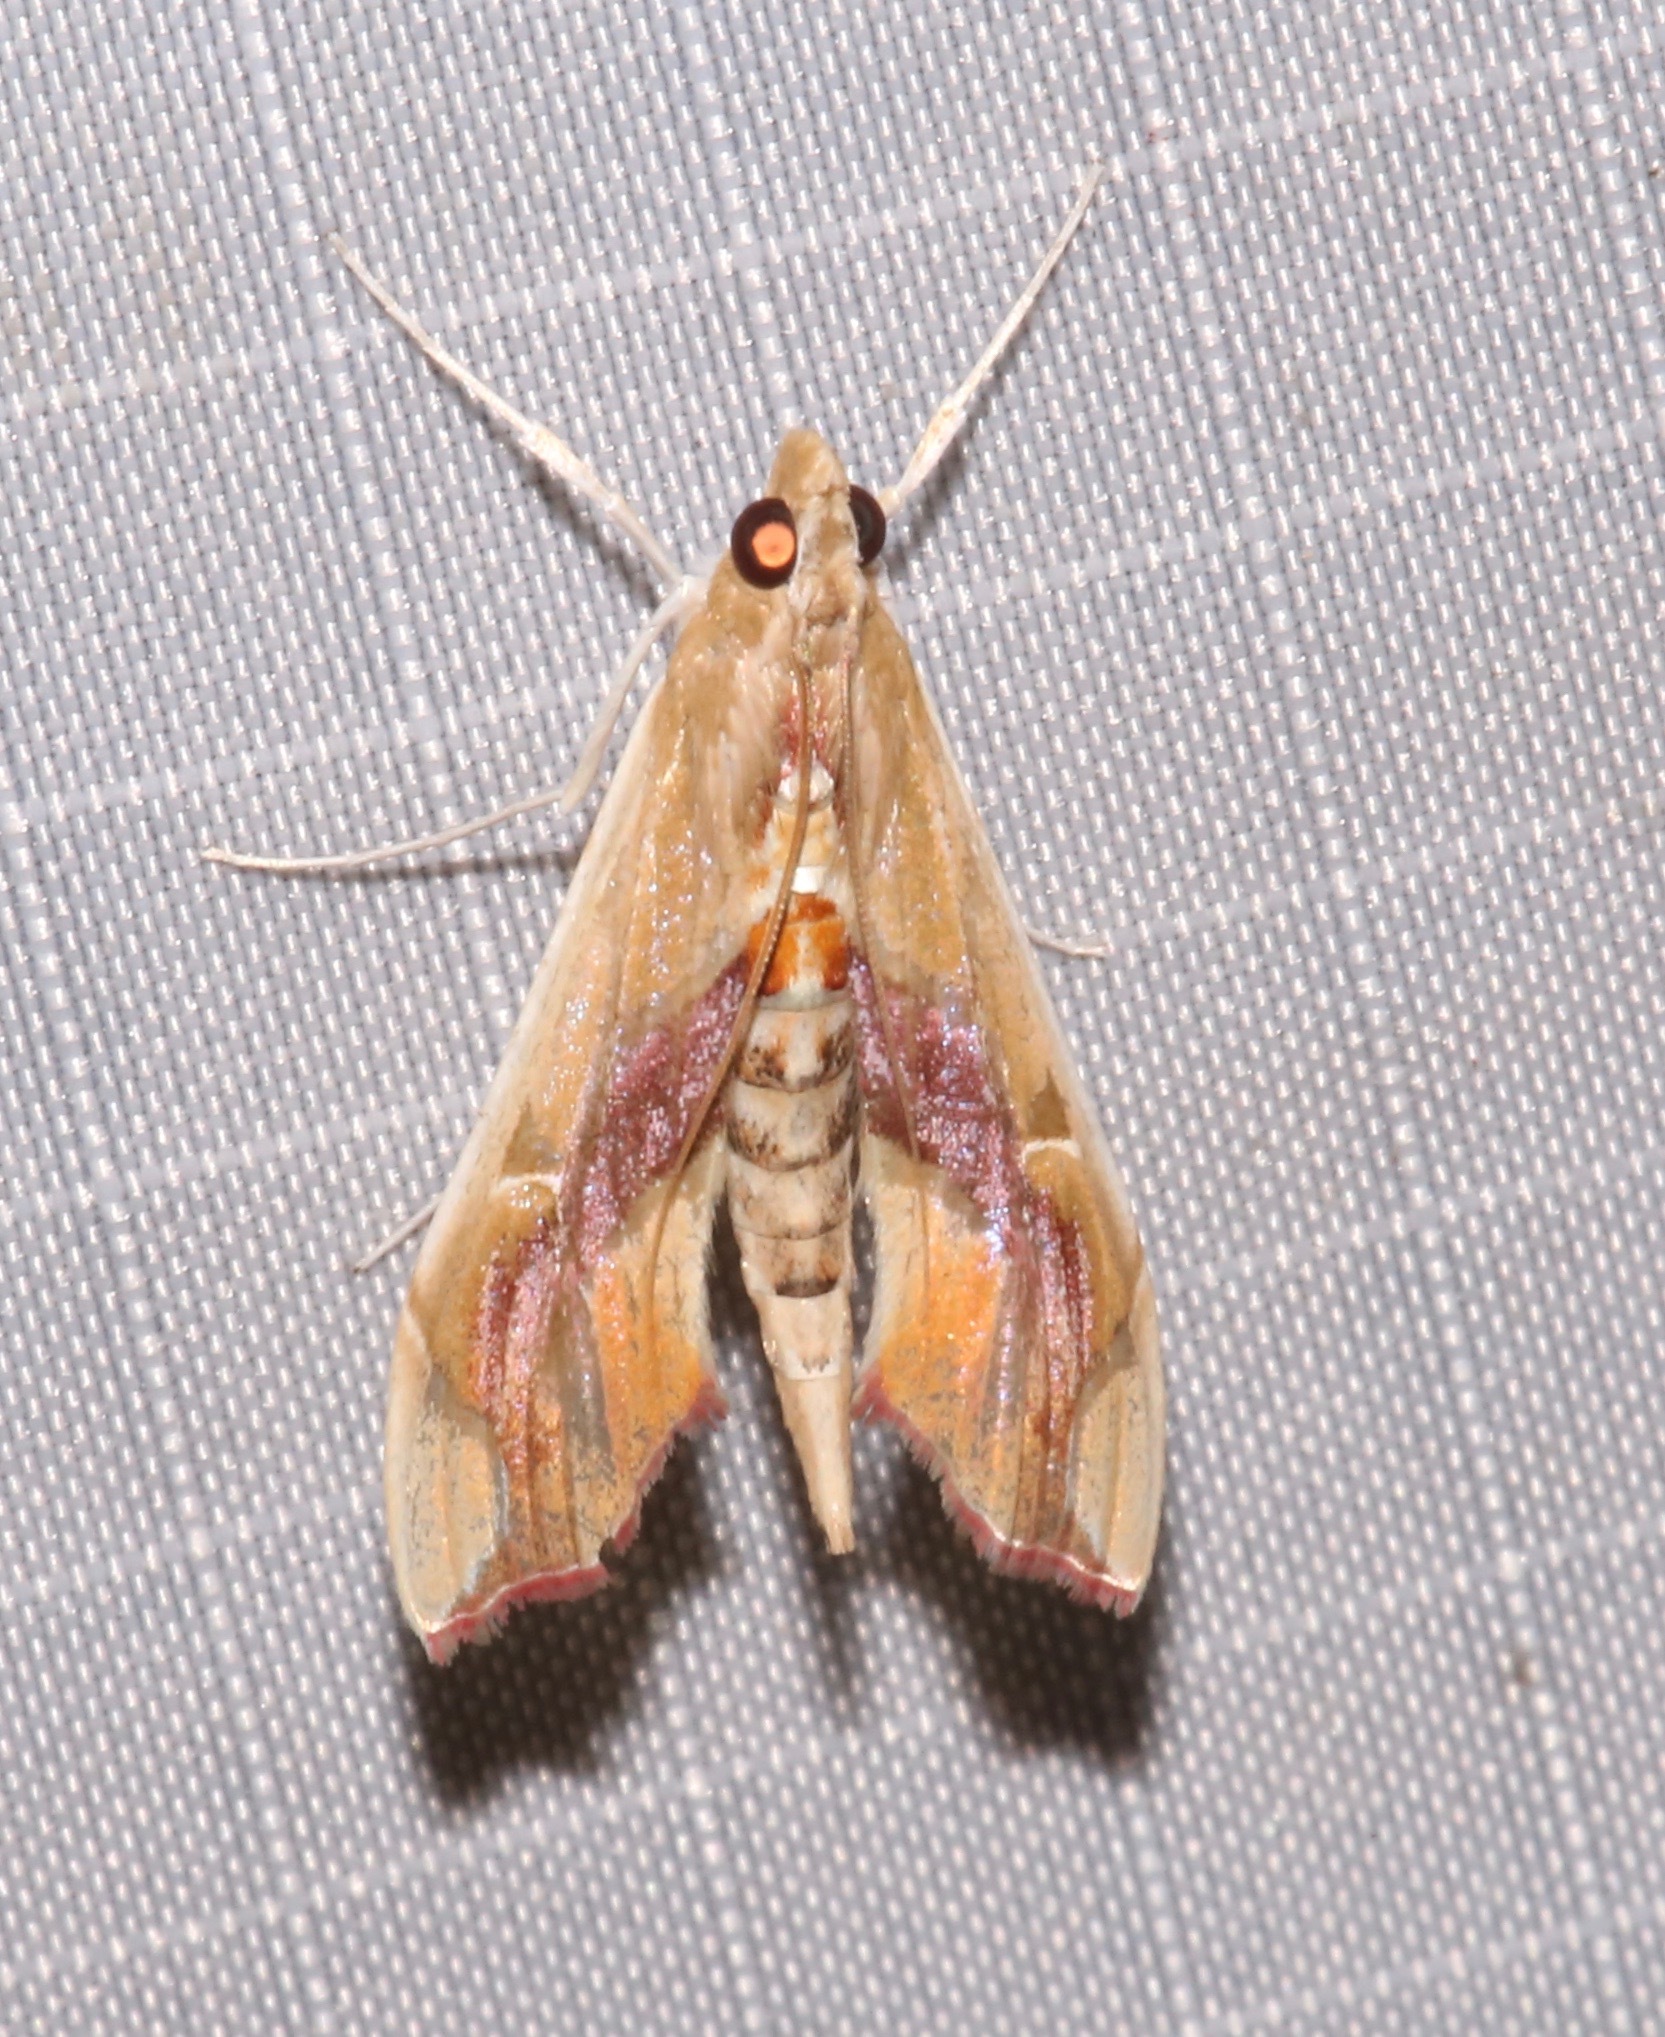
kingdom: Animalia
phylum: Arthropoda
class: Insecta
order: Lepidoptera
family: Crambidae
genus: Agathodes
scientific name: Agathodes monstralis
